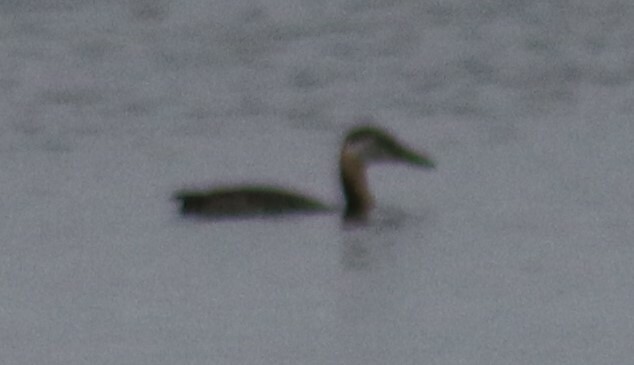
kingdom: Animalia
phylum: Chordata
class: Aves
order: Podicipediformes
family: Podicipedidae
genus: Podiceps
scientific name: Podiceps grisegena
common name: Red-necked grebe
